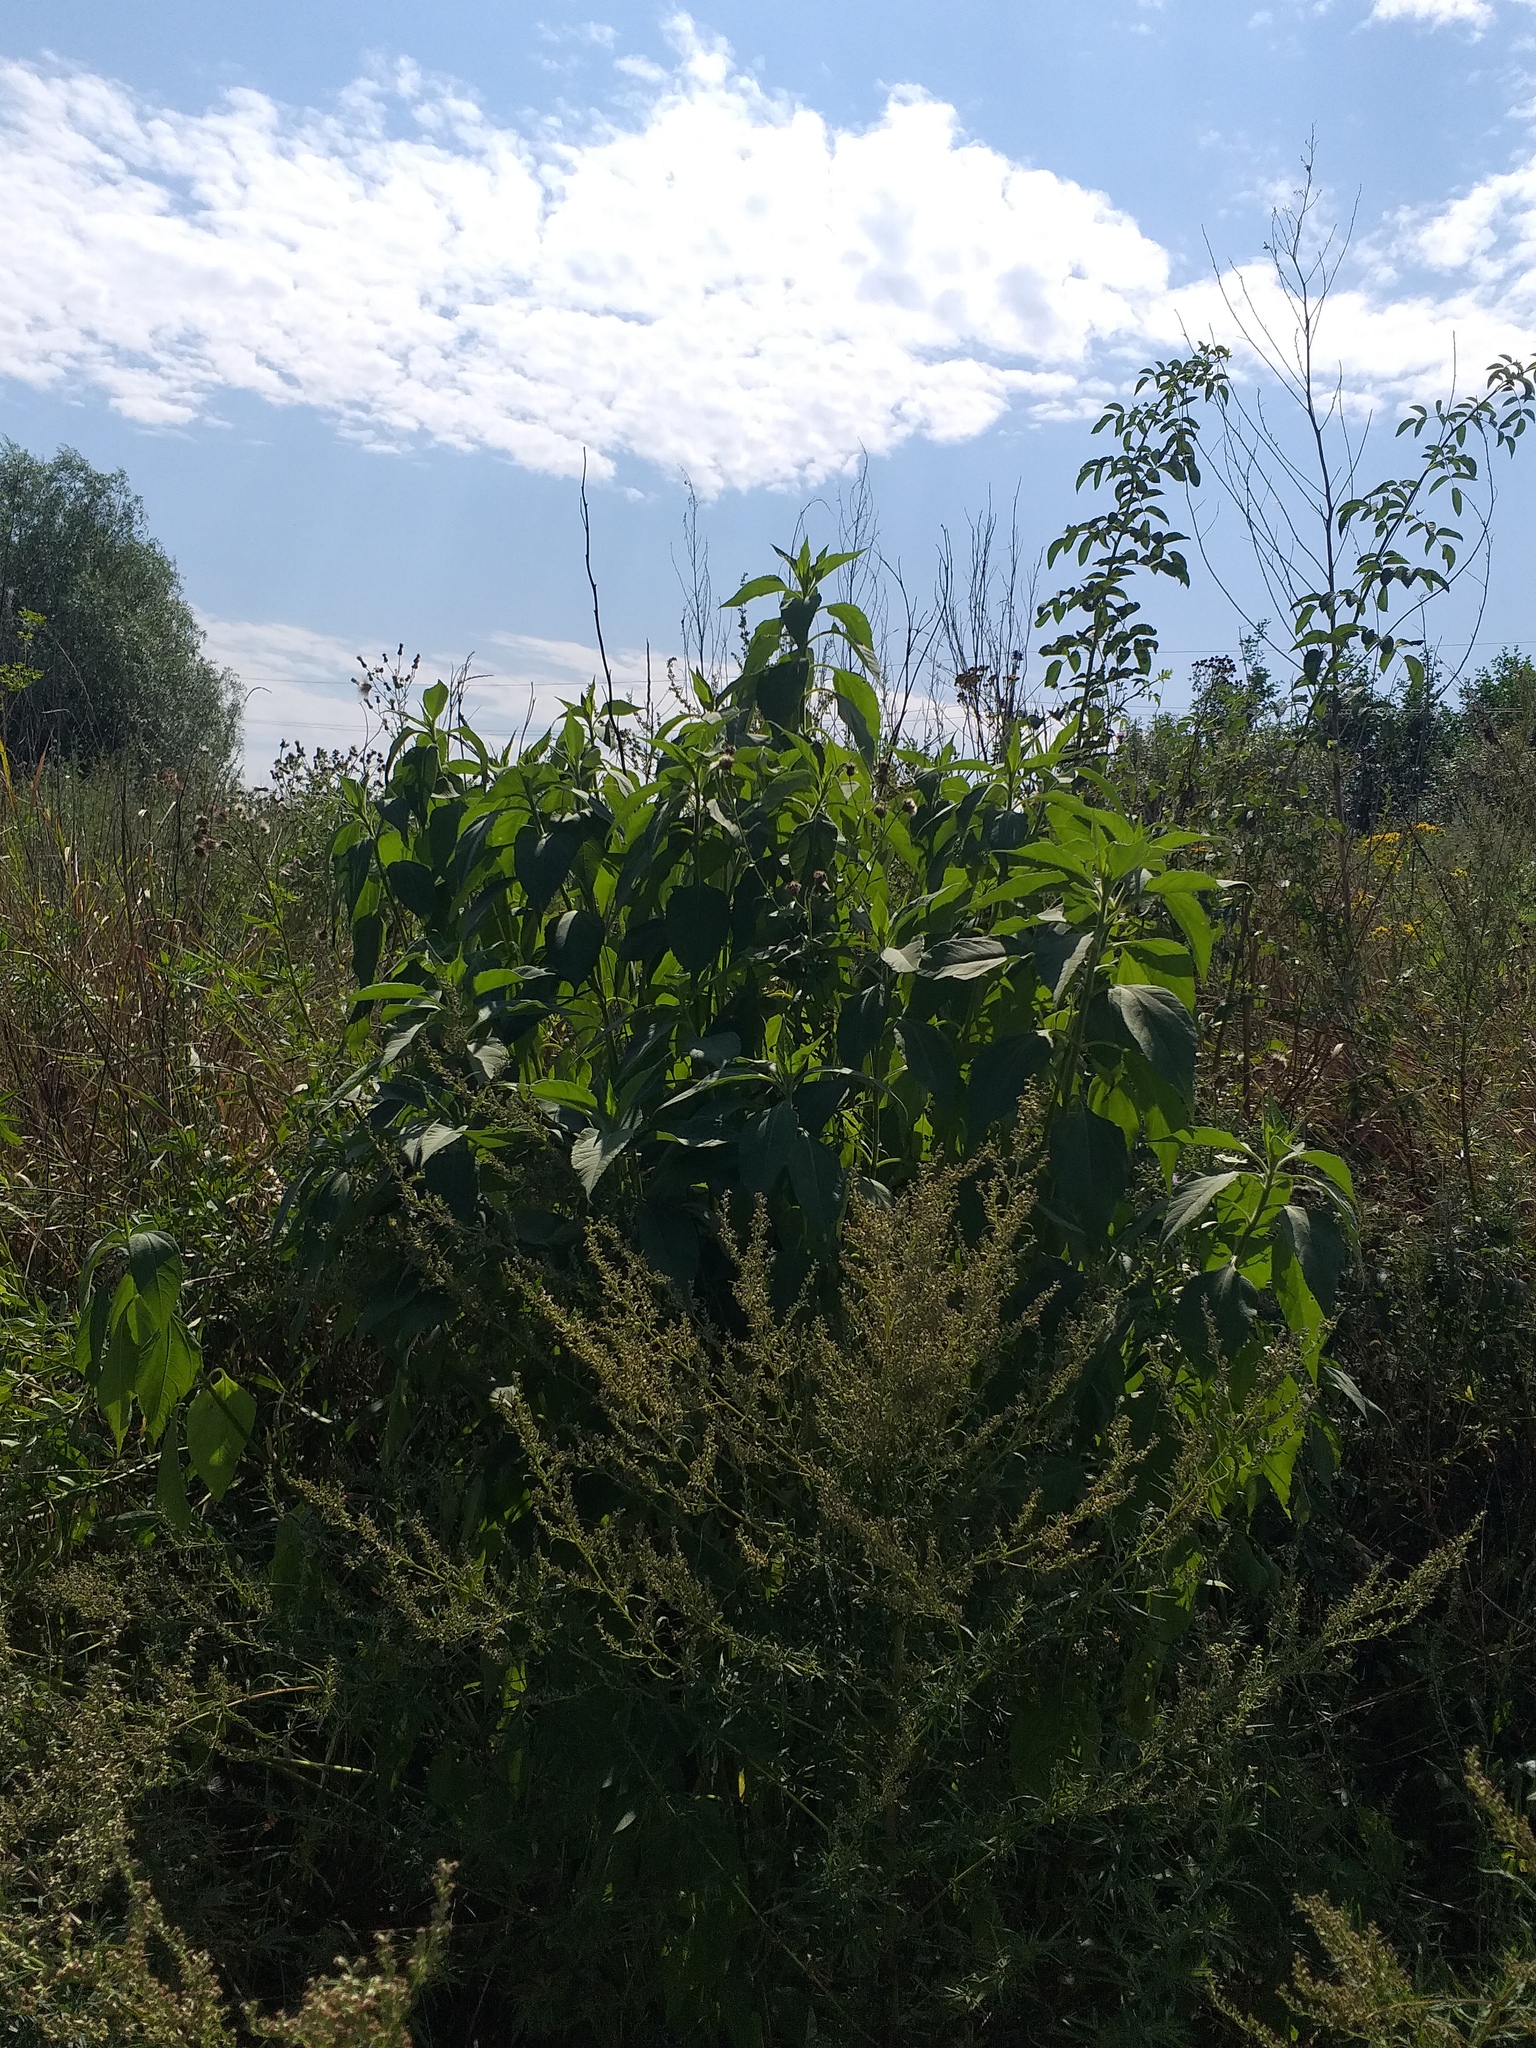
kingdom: Plantae
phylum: Tracheophyta
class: Magnoliopsida
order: Asterales
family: Asteraceae
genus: Helianthus
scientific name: Helianthus tuberosus
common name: Jerusalem artichoke
